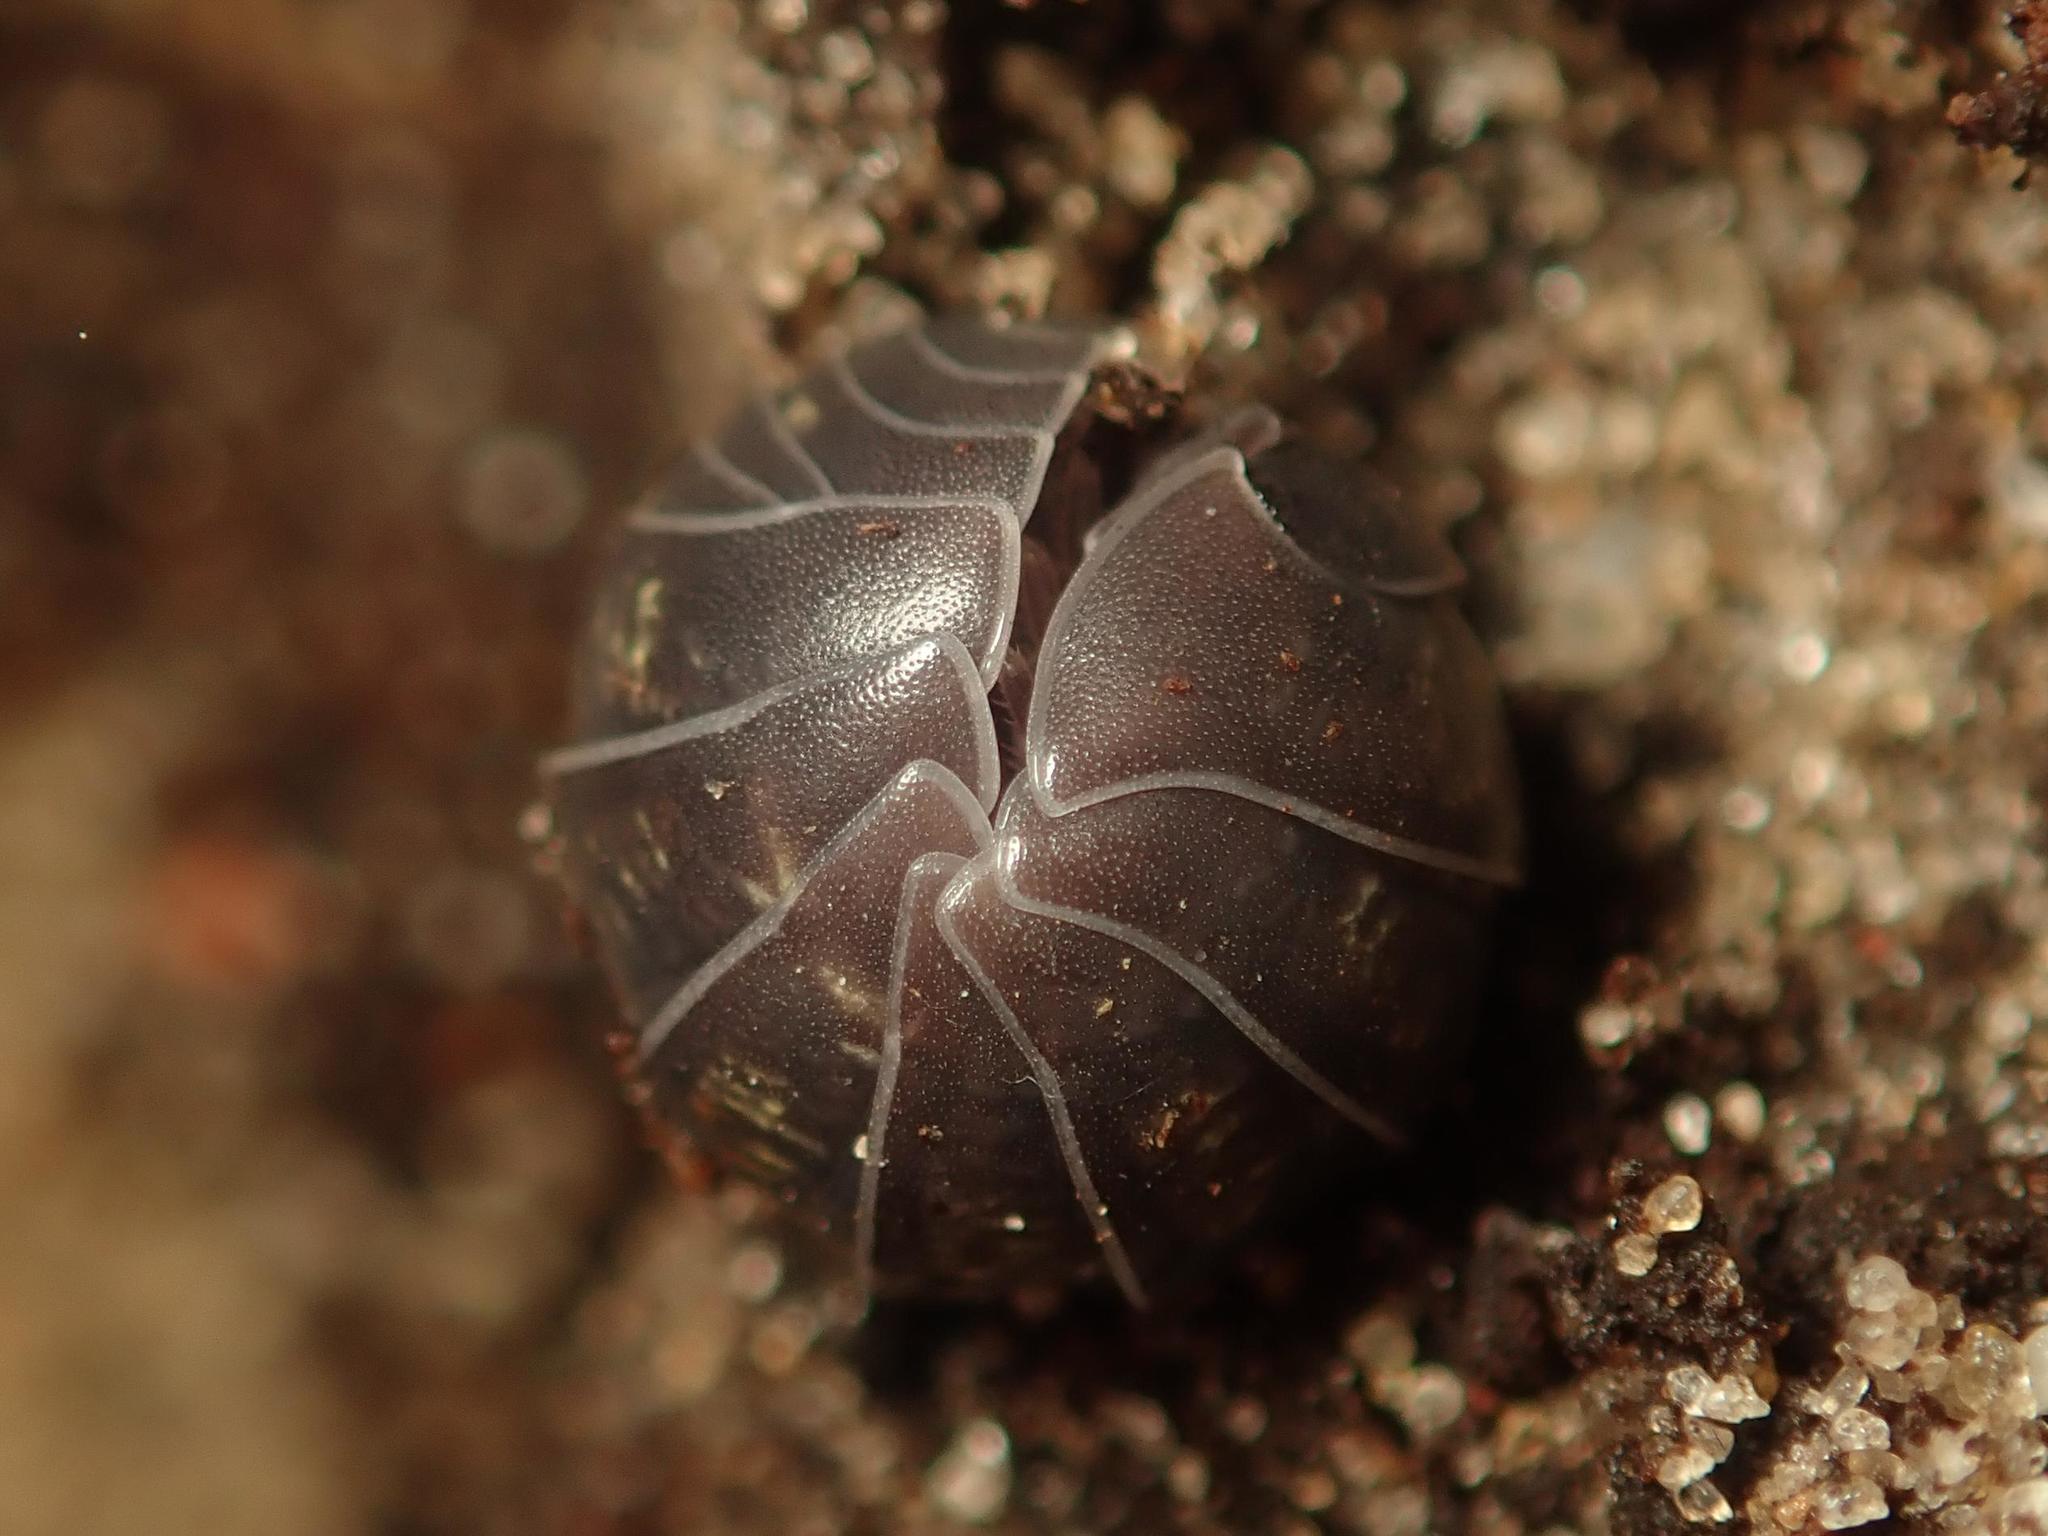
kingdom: Animalia
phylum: Arthropoda
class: Malacostraca
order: Isopoda
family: Armadillidiidae
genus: Armadillidium
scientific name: Armadillidium vulgare
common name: Common pill woodlouse
